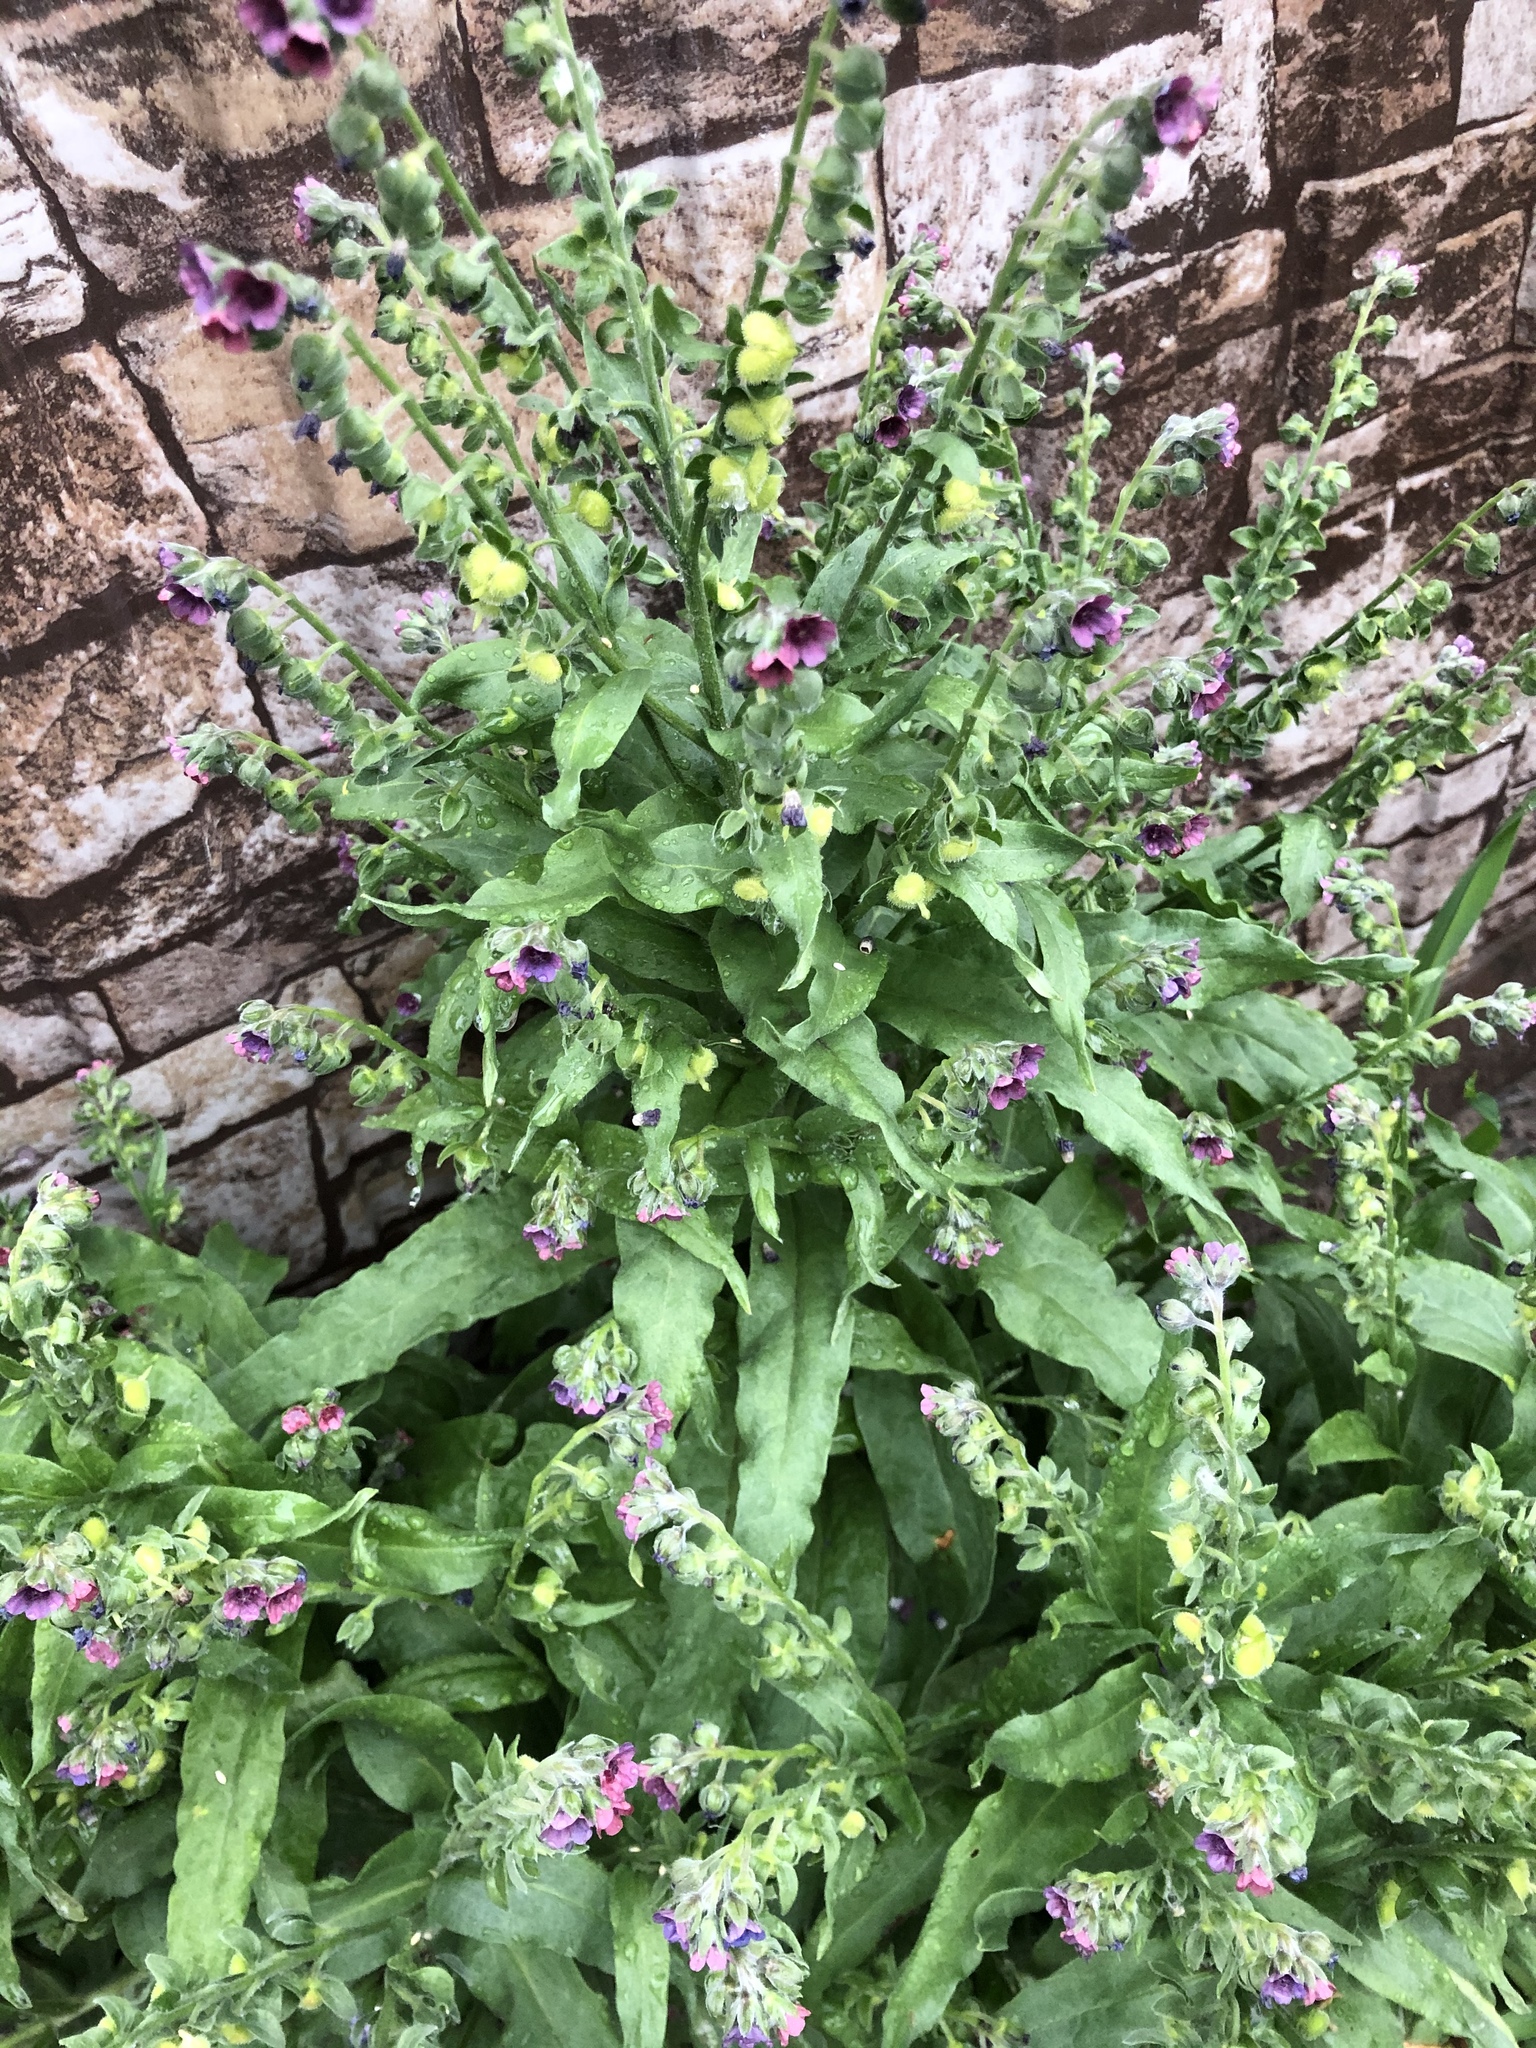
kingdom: Plantae
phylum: Tracheophyta
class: Magnoliopsida
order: Boraginales
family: Boraginaceae
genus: Cynoglossum
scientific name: Cynoglossum officinale
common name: Hound's-tongue
